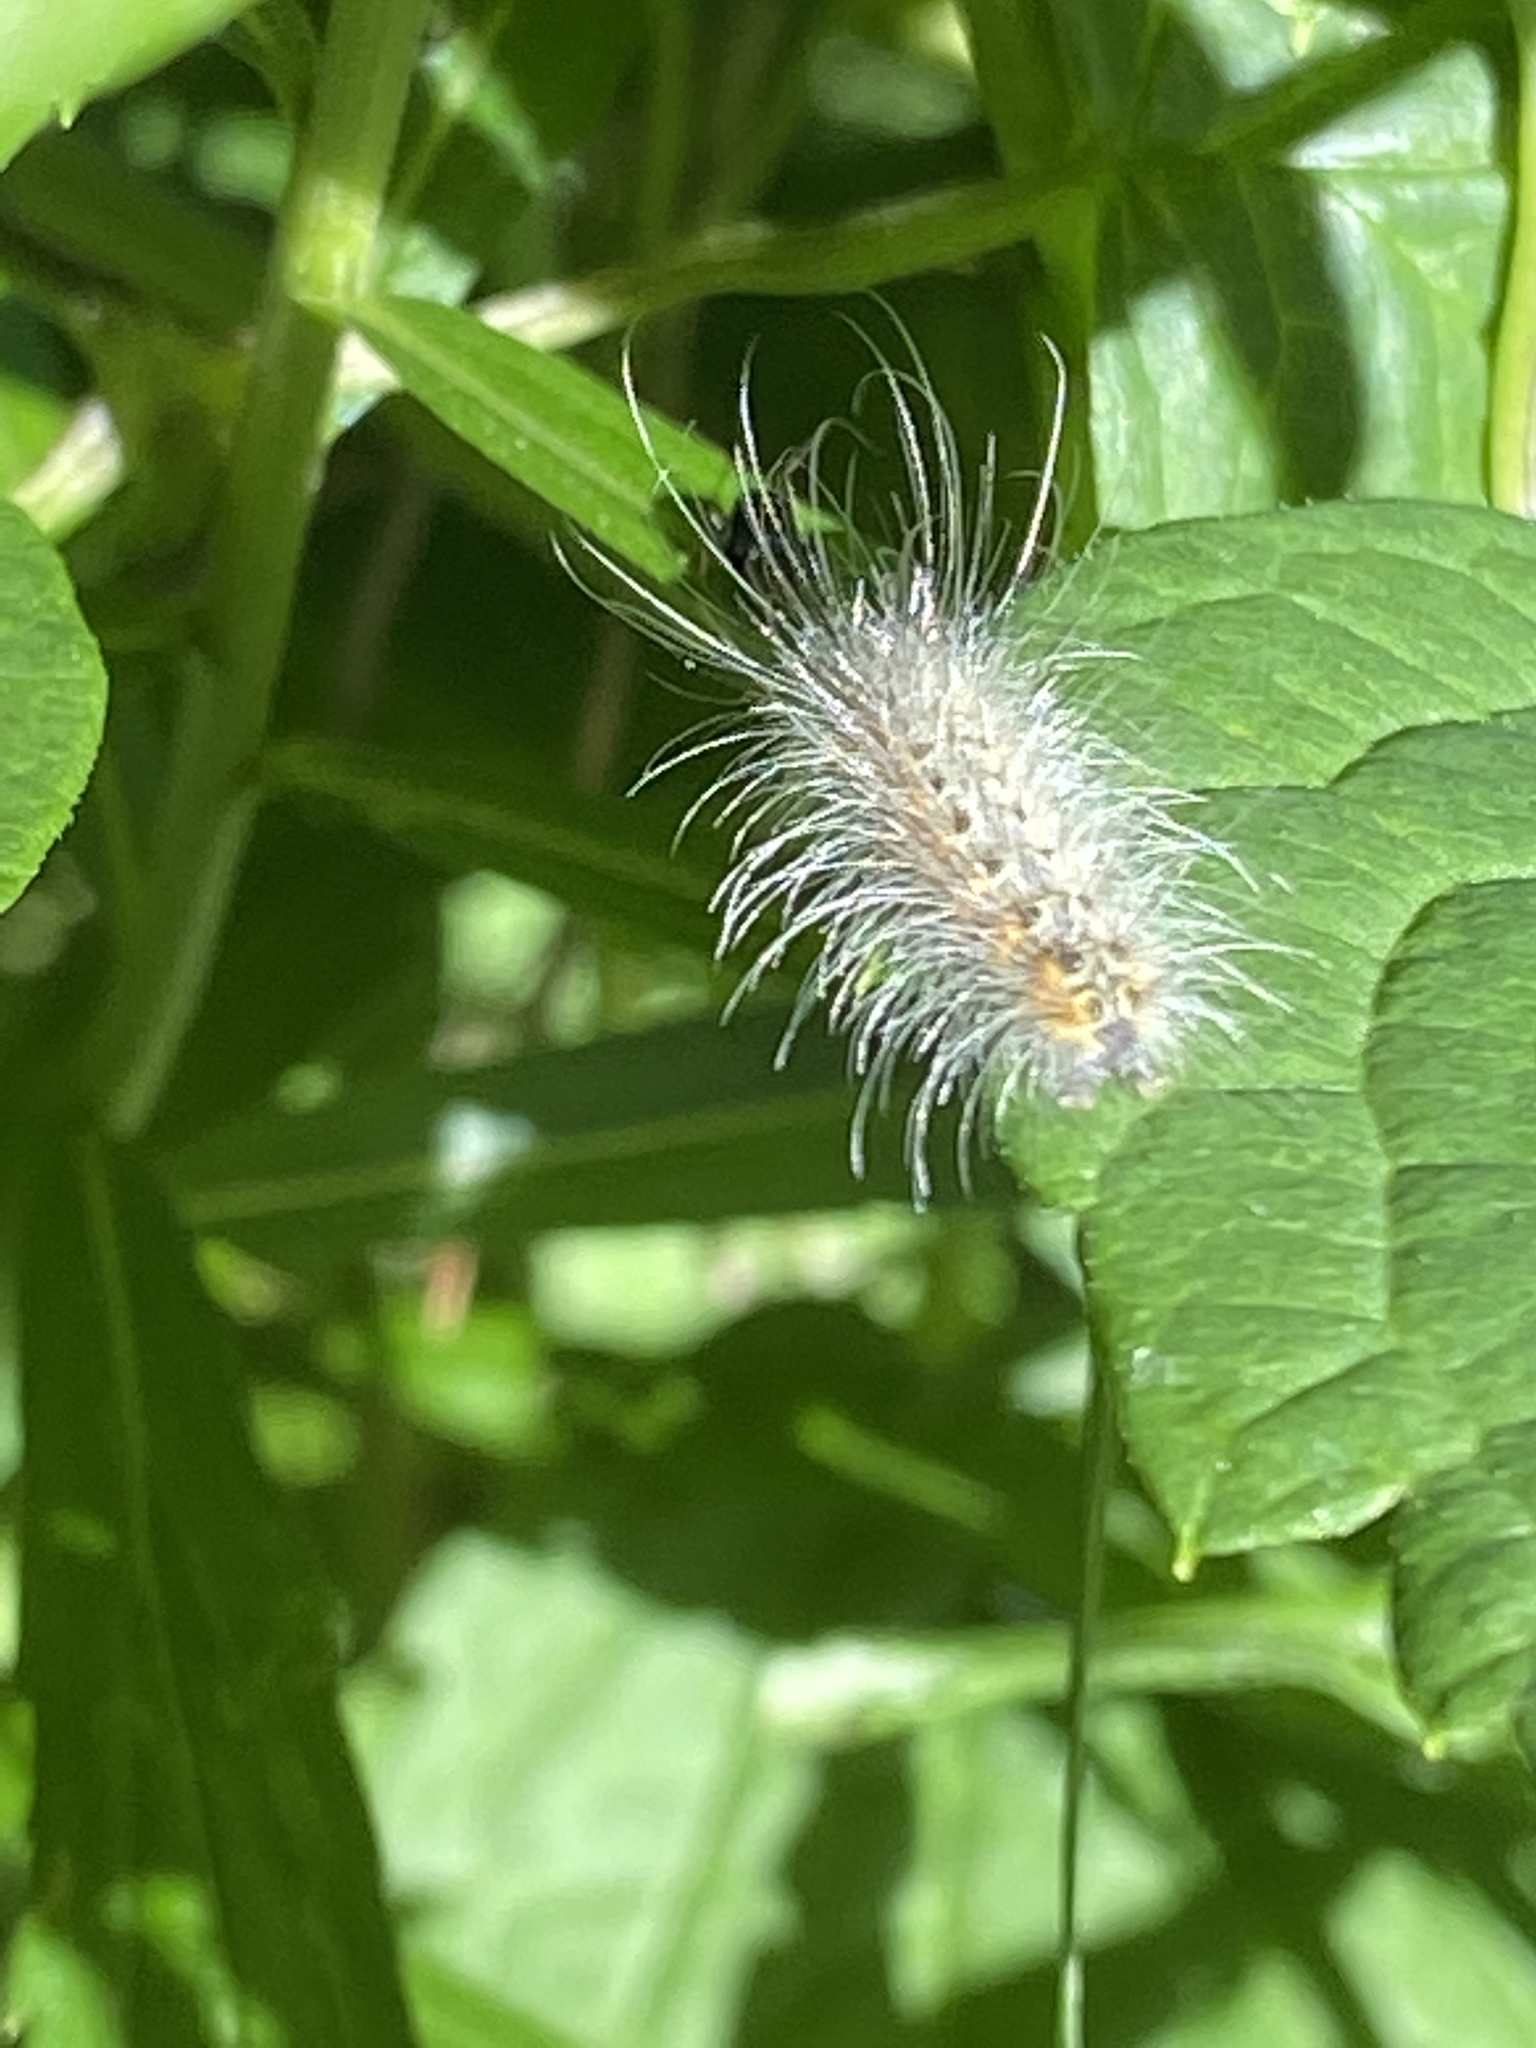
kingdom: Animalia
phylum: Arthropoda
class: Insecta
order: Lepidoptera
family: Erebidae
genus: Hyphantria
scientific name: Hyphantria cunea
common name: American white moth
